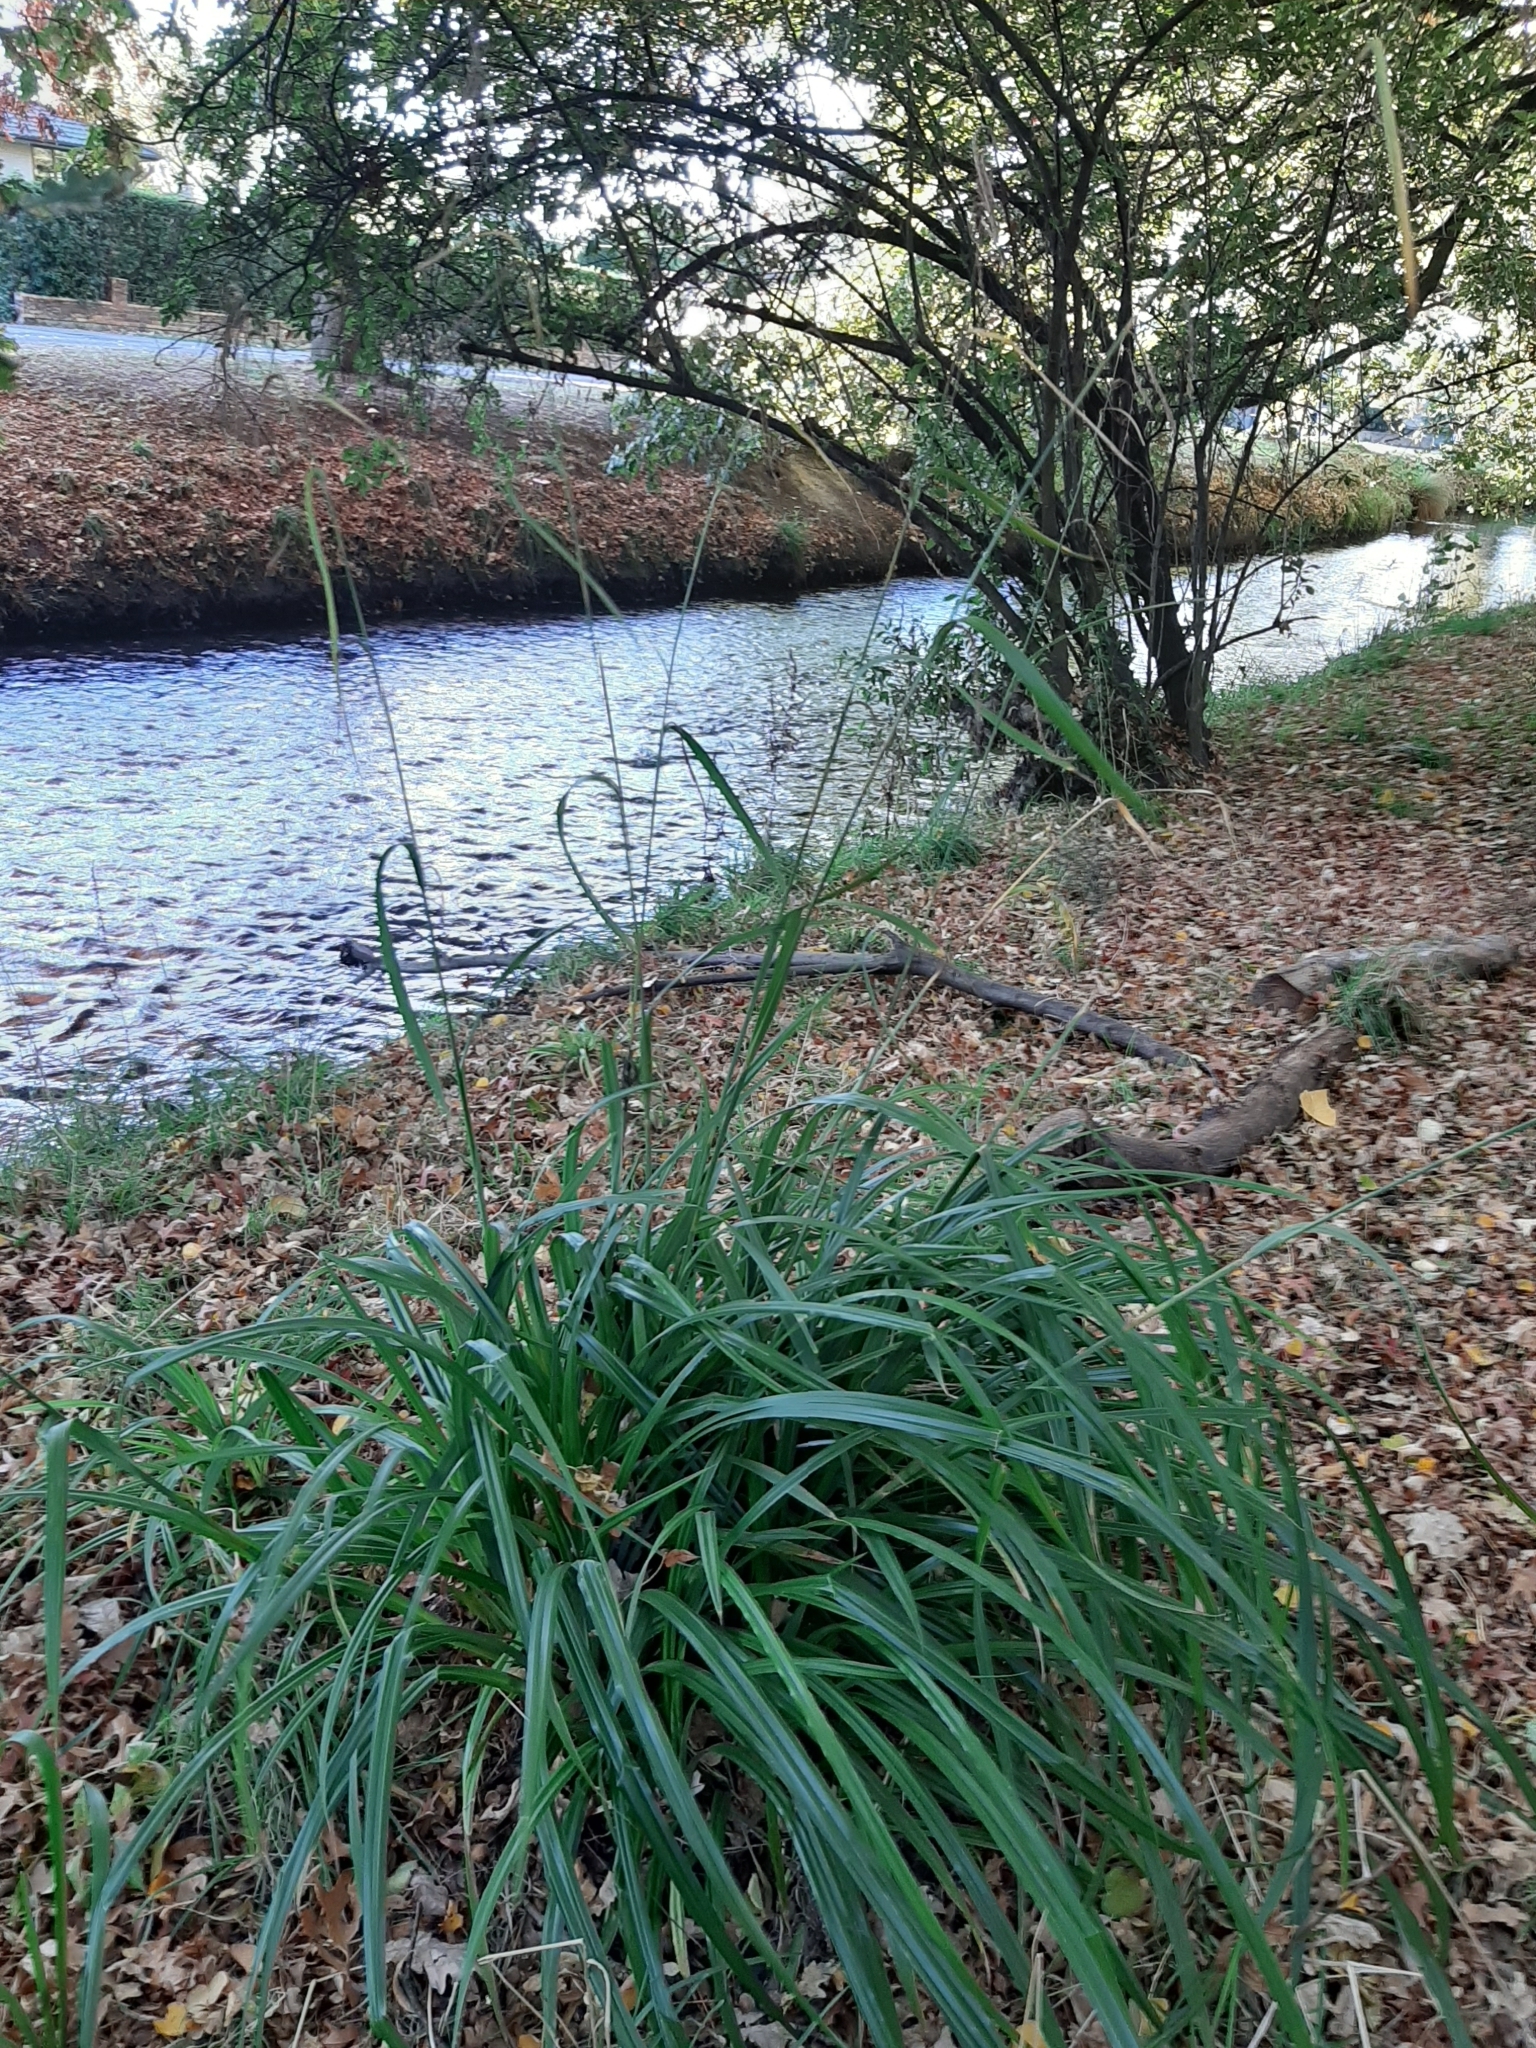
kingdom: Plantae
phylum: Tracheophyta
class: Liliopsida
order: Poales
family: Cyperaceae
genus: Carex
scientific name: Carex pendula
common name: Pendulous sedge
